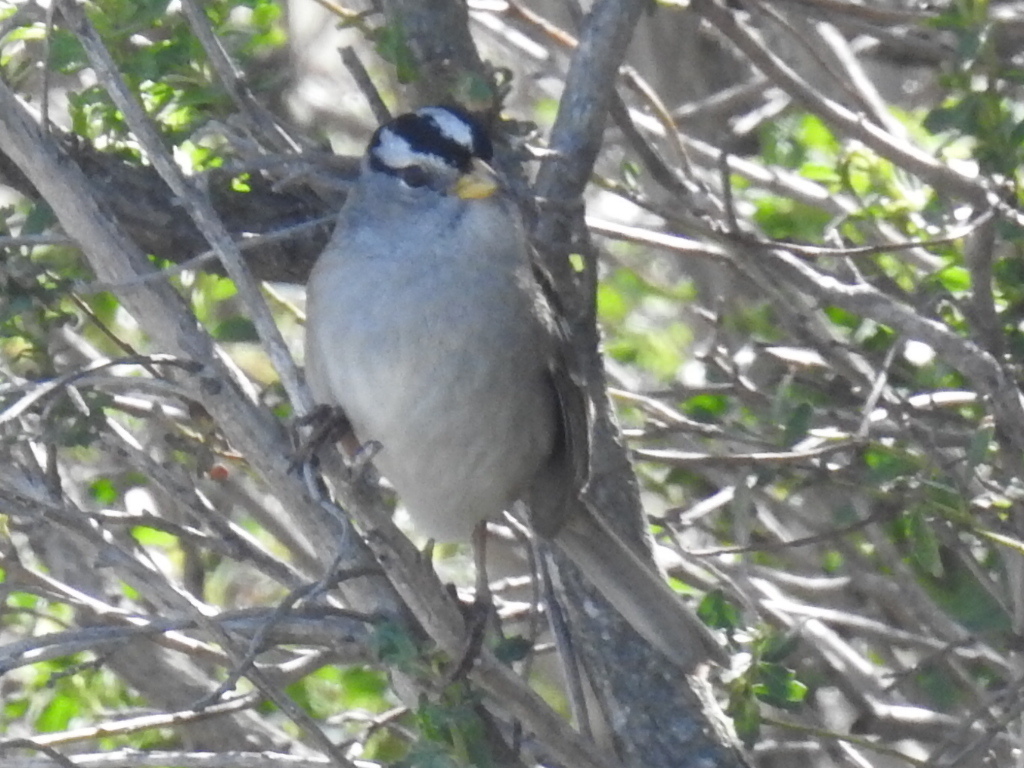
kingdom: Animalia
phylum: Chordata
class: Aves
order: Passeriformes
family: Passerellidae
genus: Zonotrichia
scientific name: Zonotrichia leucophrys
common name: White-crowned sparrow
